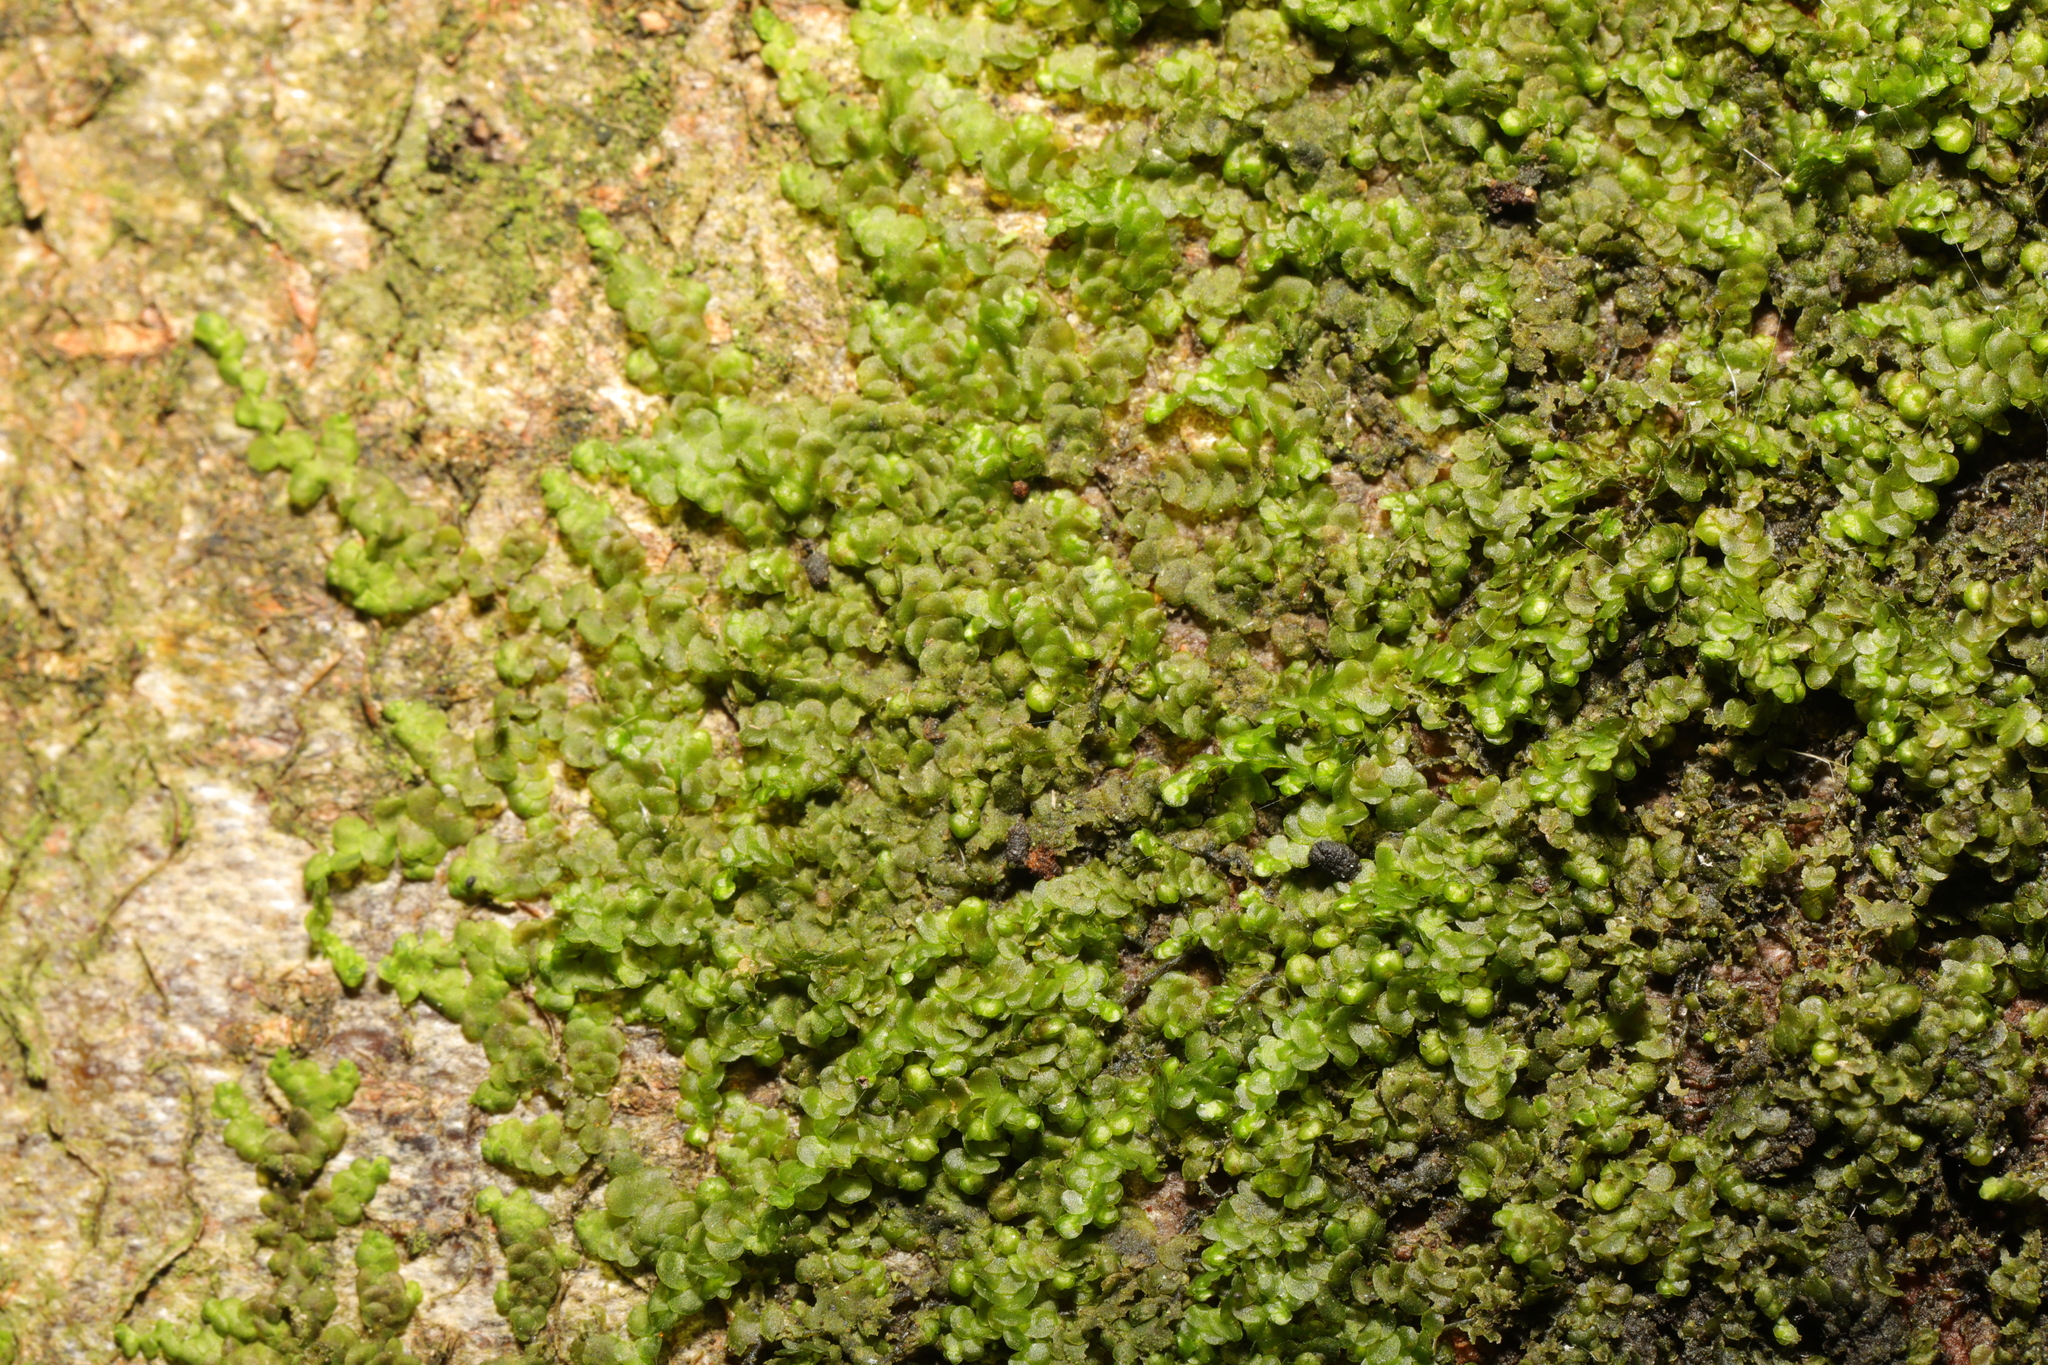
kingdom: Plantae
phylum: Marchantiophyta
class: Jungermanniopsida
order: Porellales
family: Frullaniaceae
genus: Frullania
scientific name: Frullania dilatata
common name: Dilated scalewort
